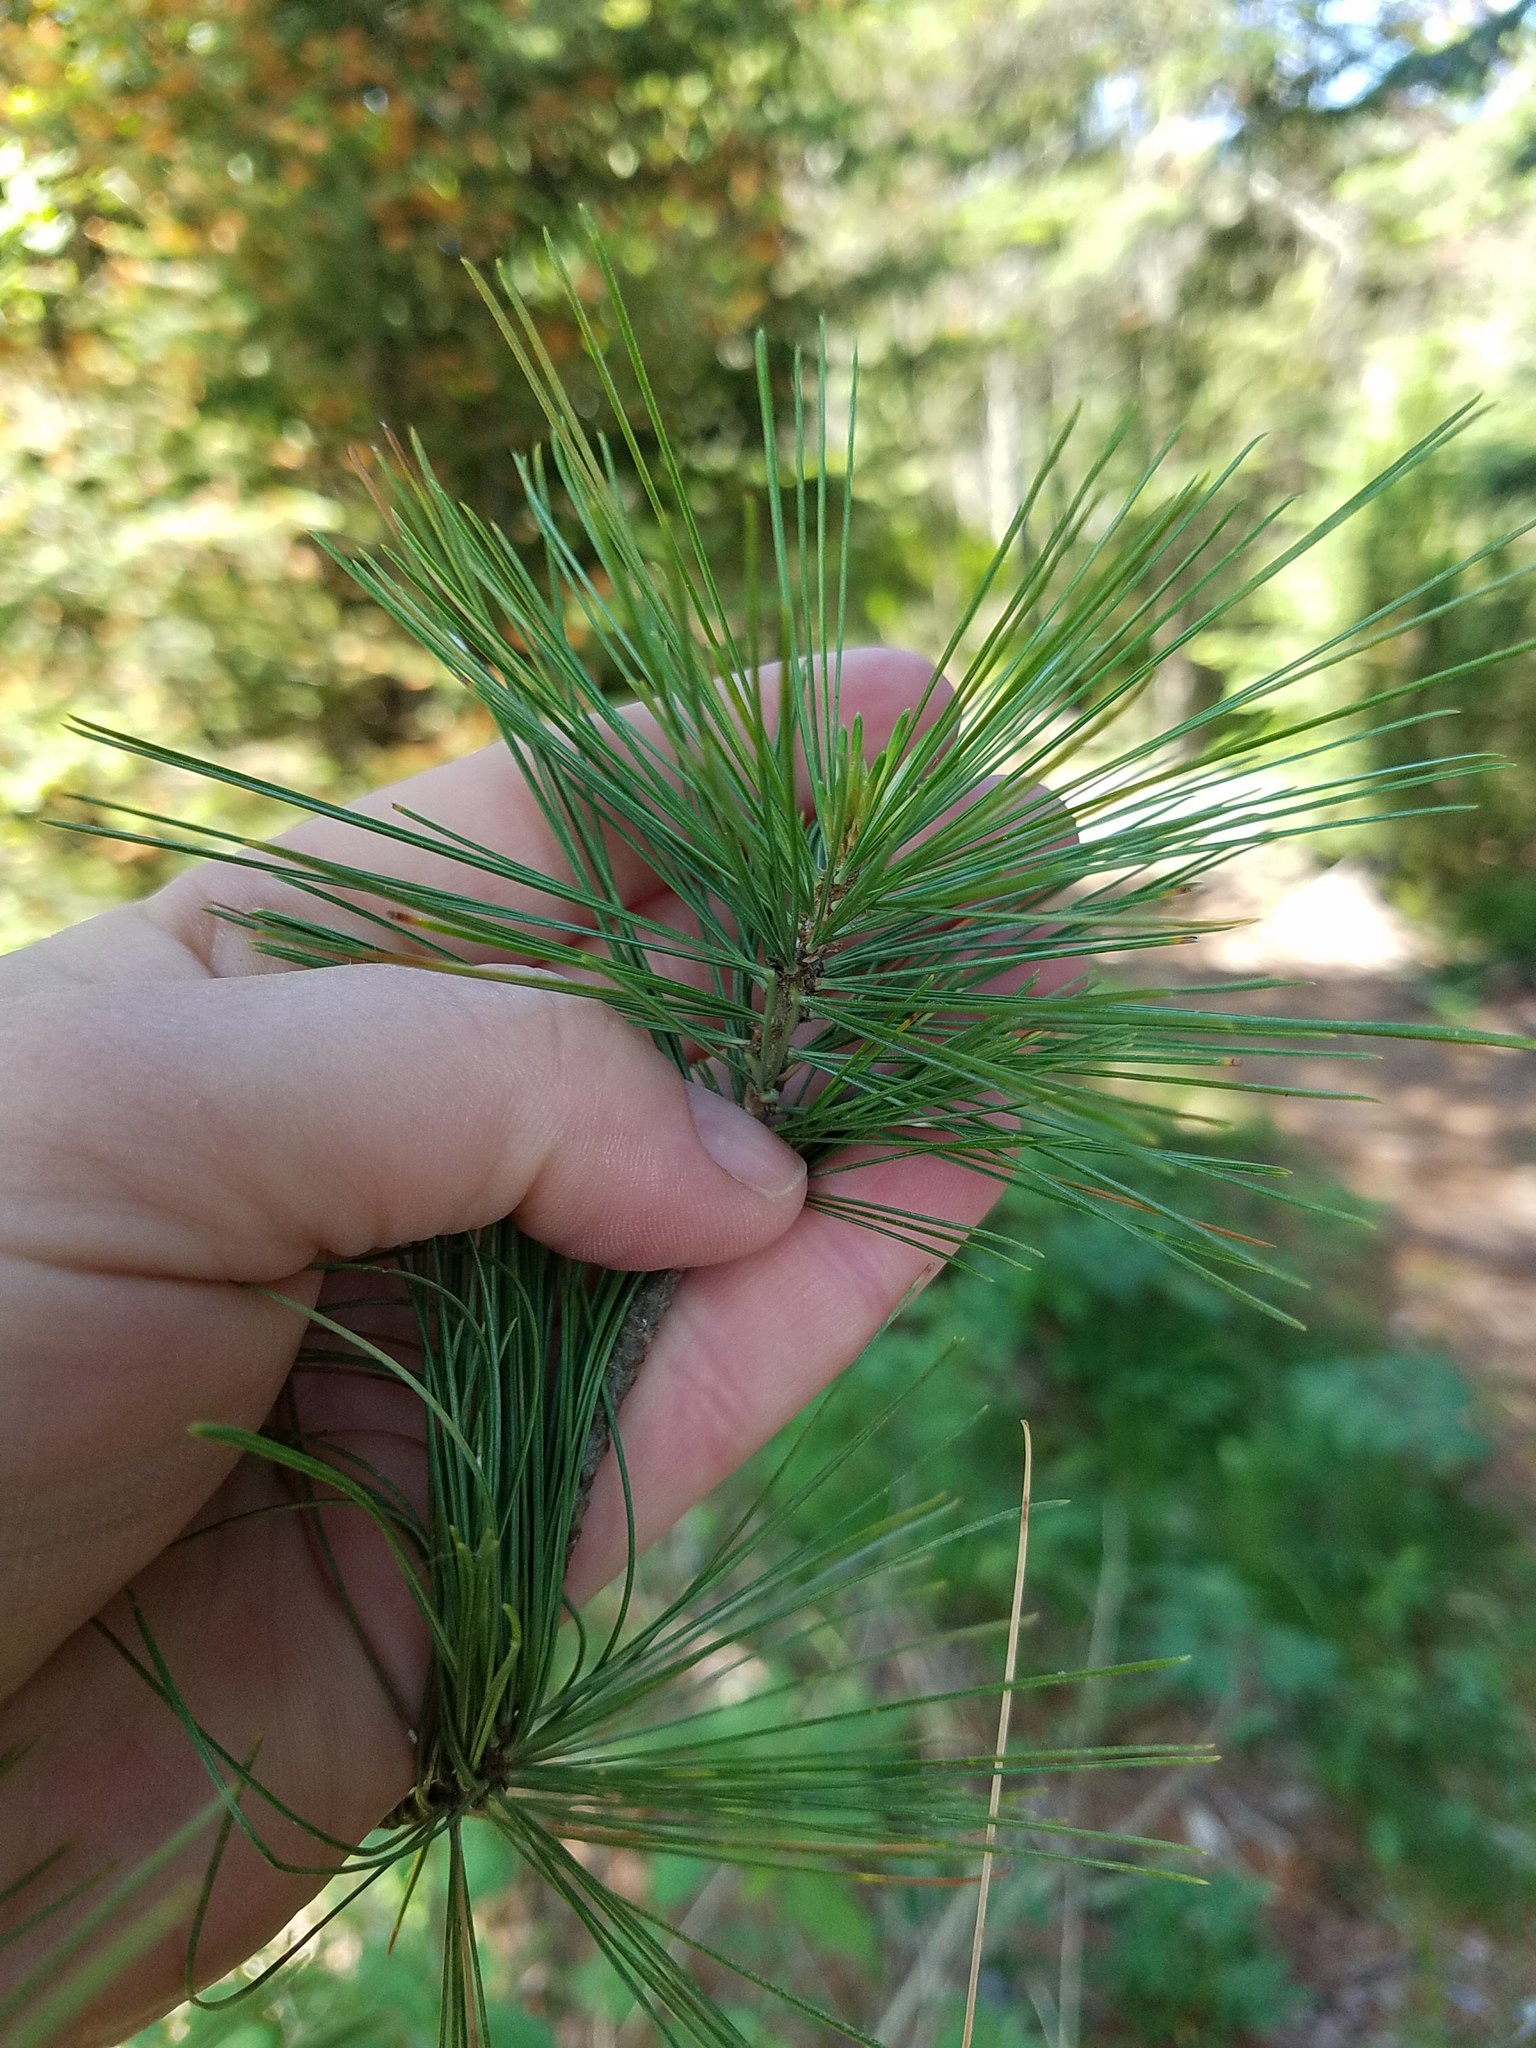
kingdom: Plantae
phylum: Tracheophyta
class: Pinopsida
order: Pinales
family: Pinaceae
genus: Pinus
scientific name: Pinus strobus
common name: Weymouth pine
